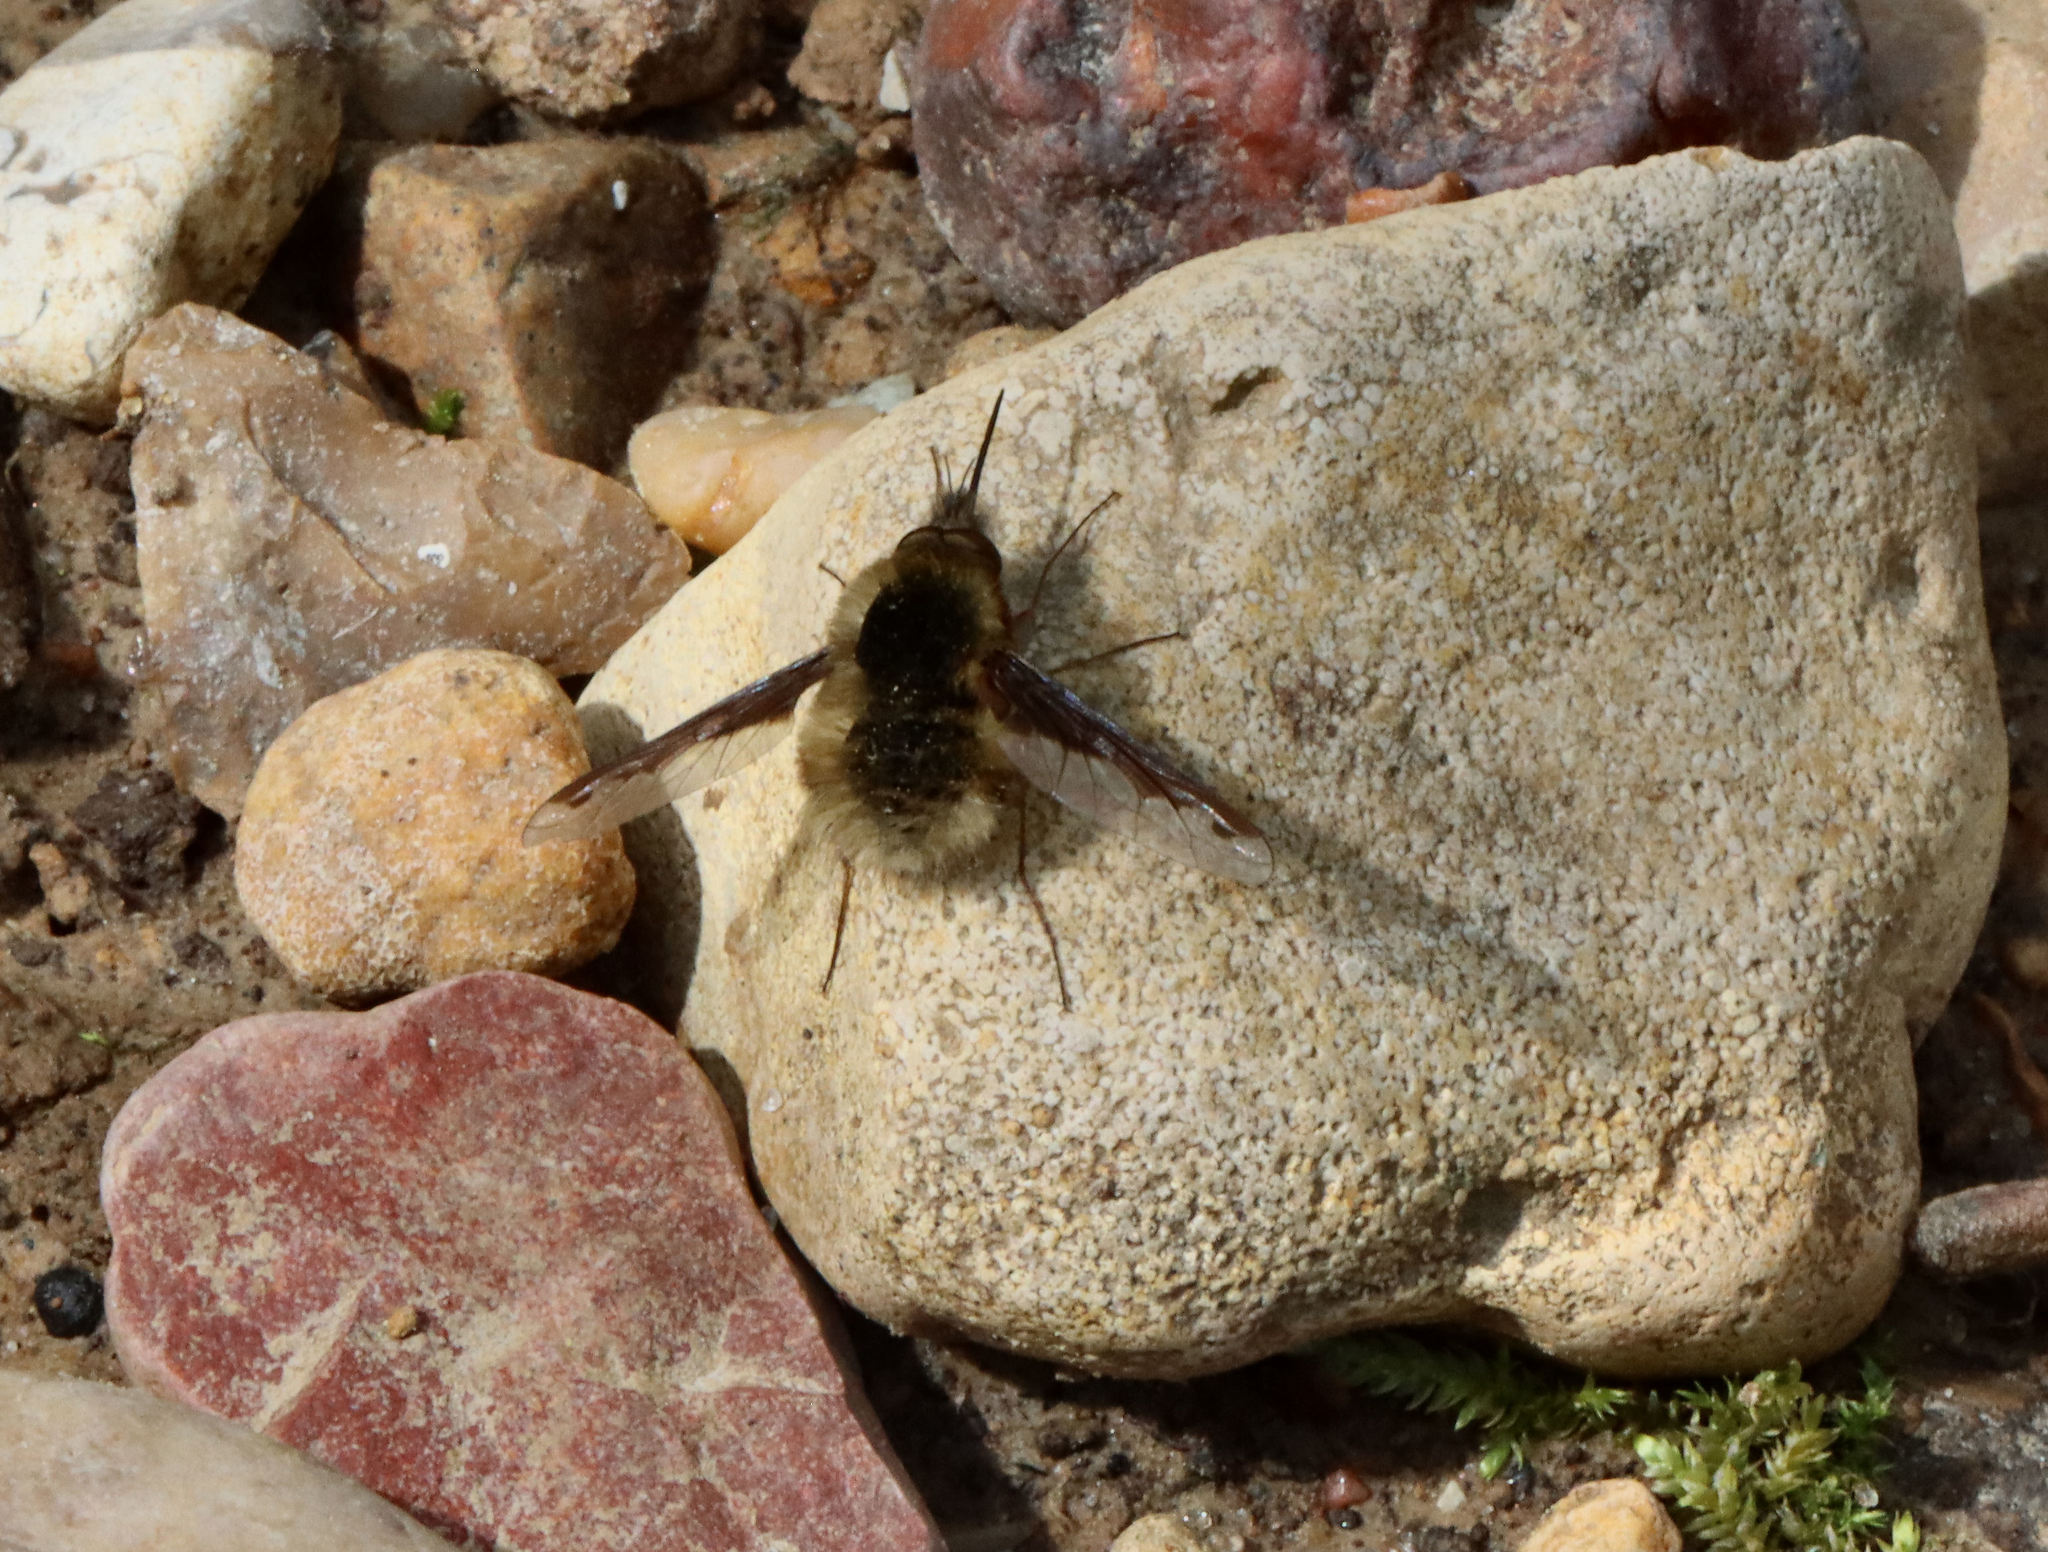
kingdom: Animalia
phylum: Arthropoda
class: Insecta
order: Diptera
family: Bombyliidae
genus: Bombylius
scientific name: Bombylius major
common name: Bee fly
